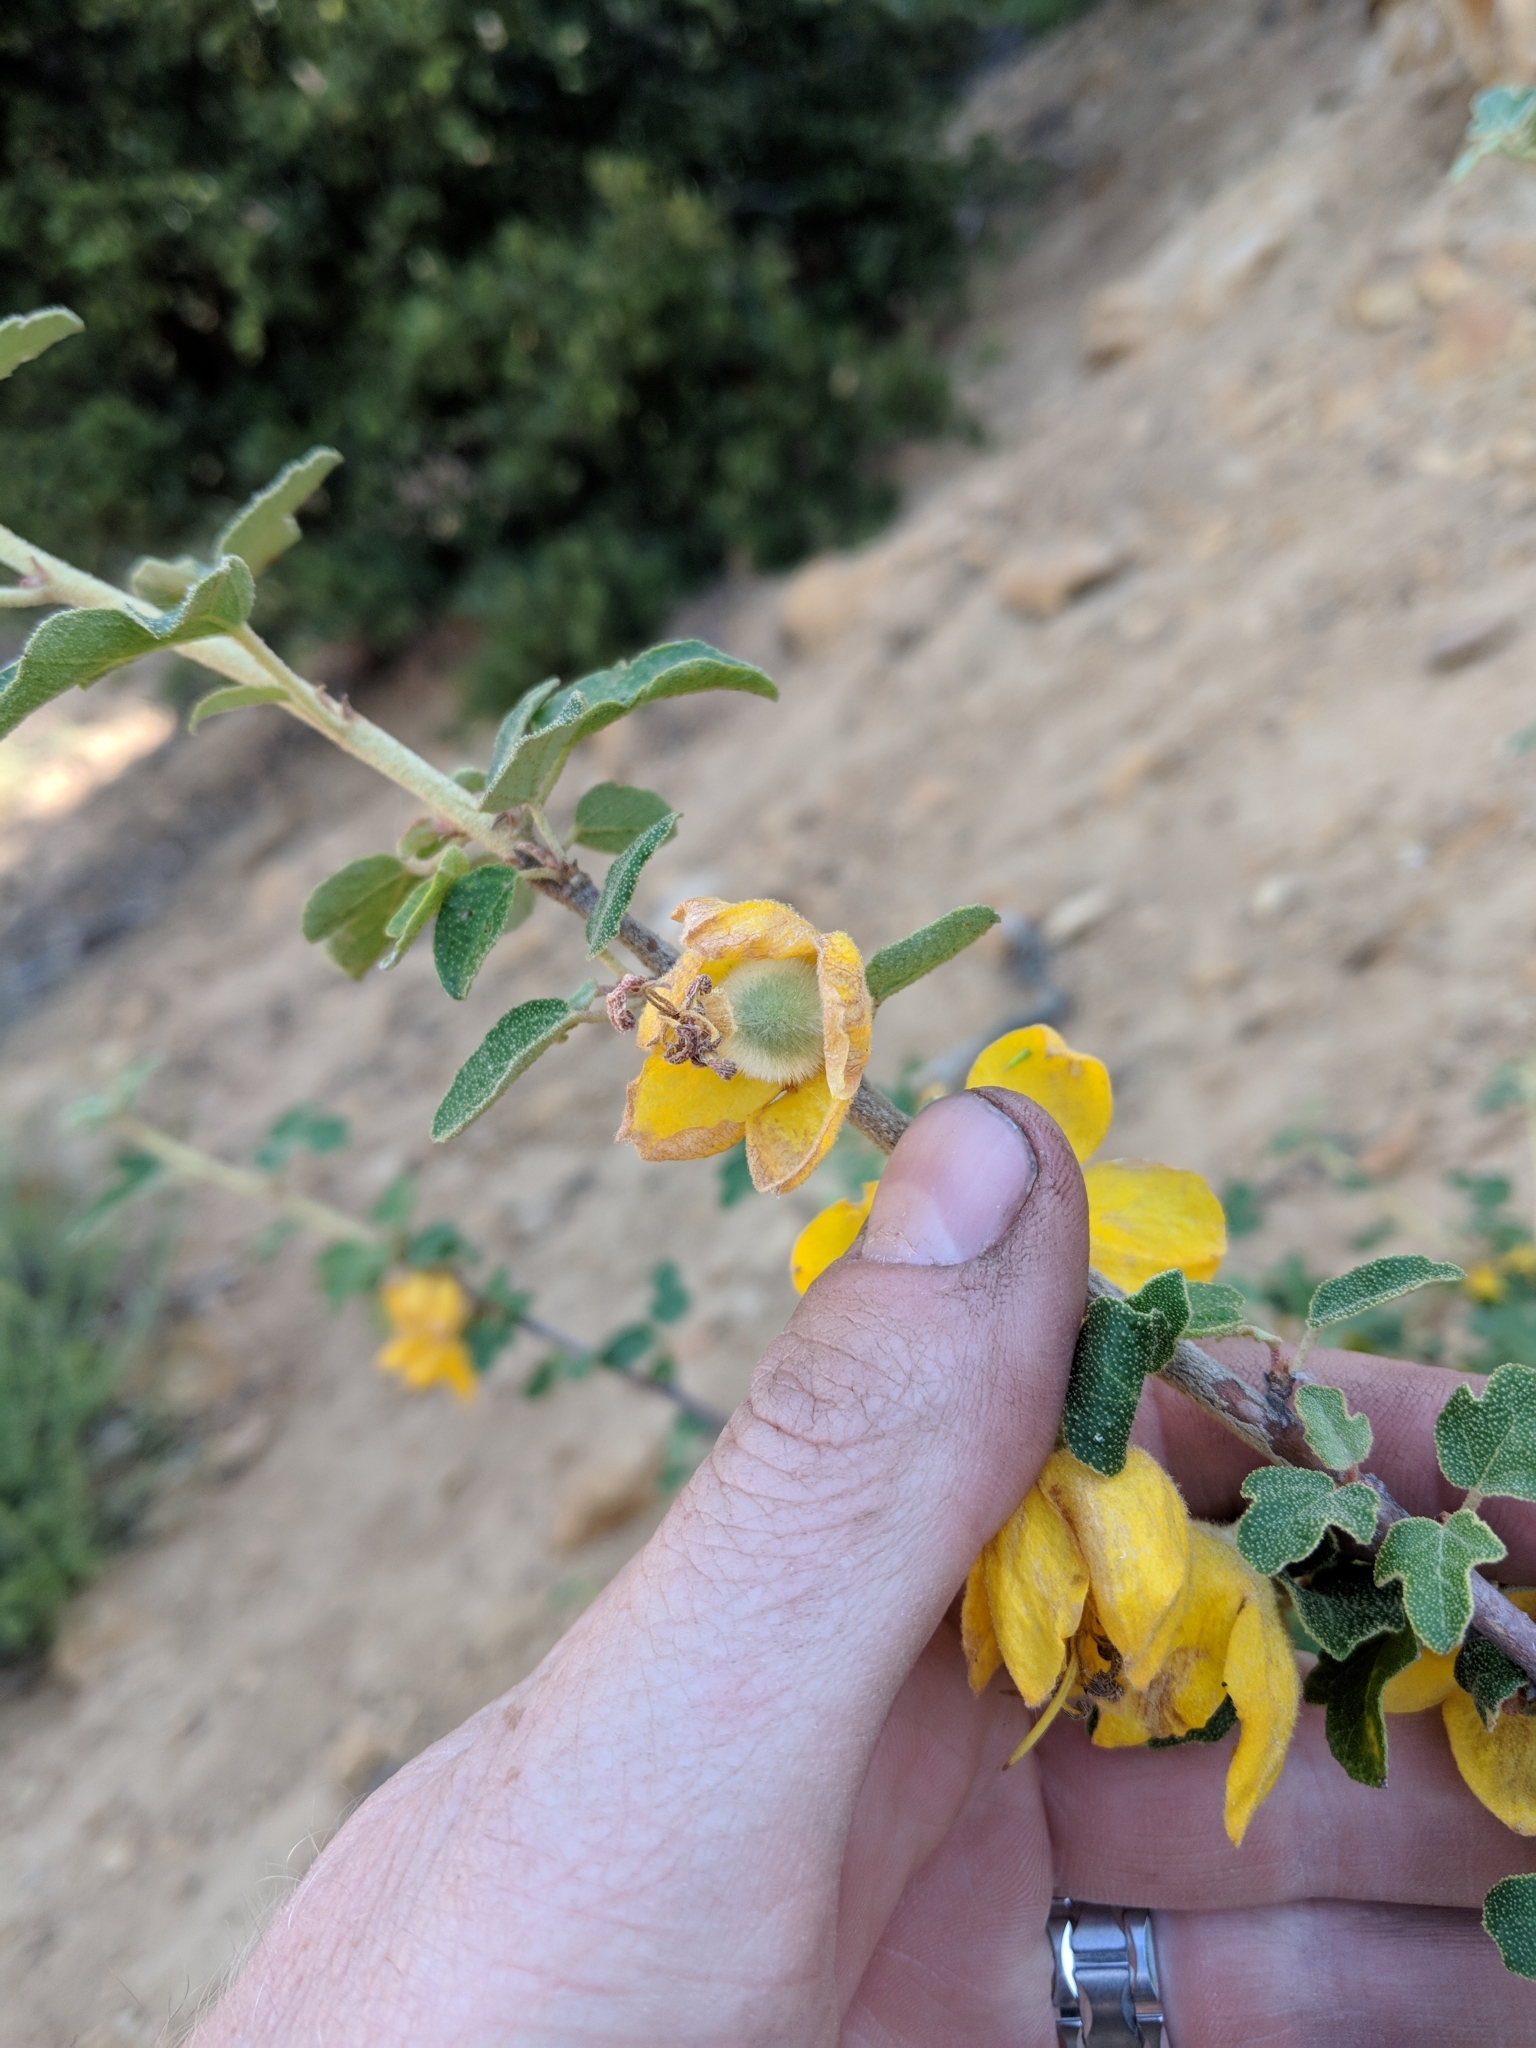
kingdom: Plantae
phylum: Tracheophyta
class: Magnoliopsida
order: Malvales
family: Malvaceae
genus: Fremontodendron
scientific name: Fremontodendron californicum
